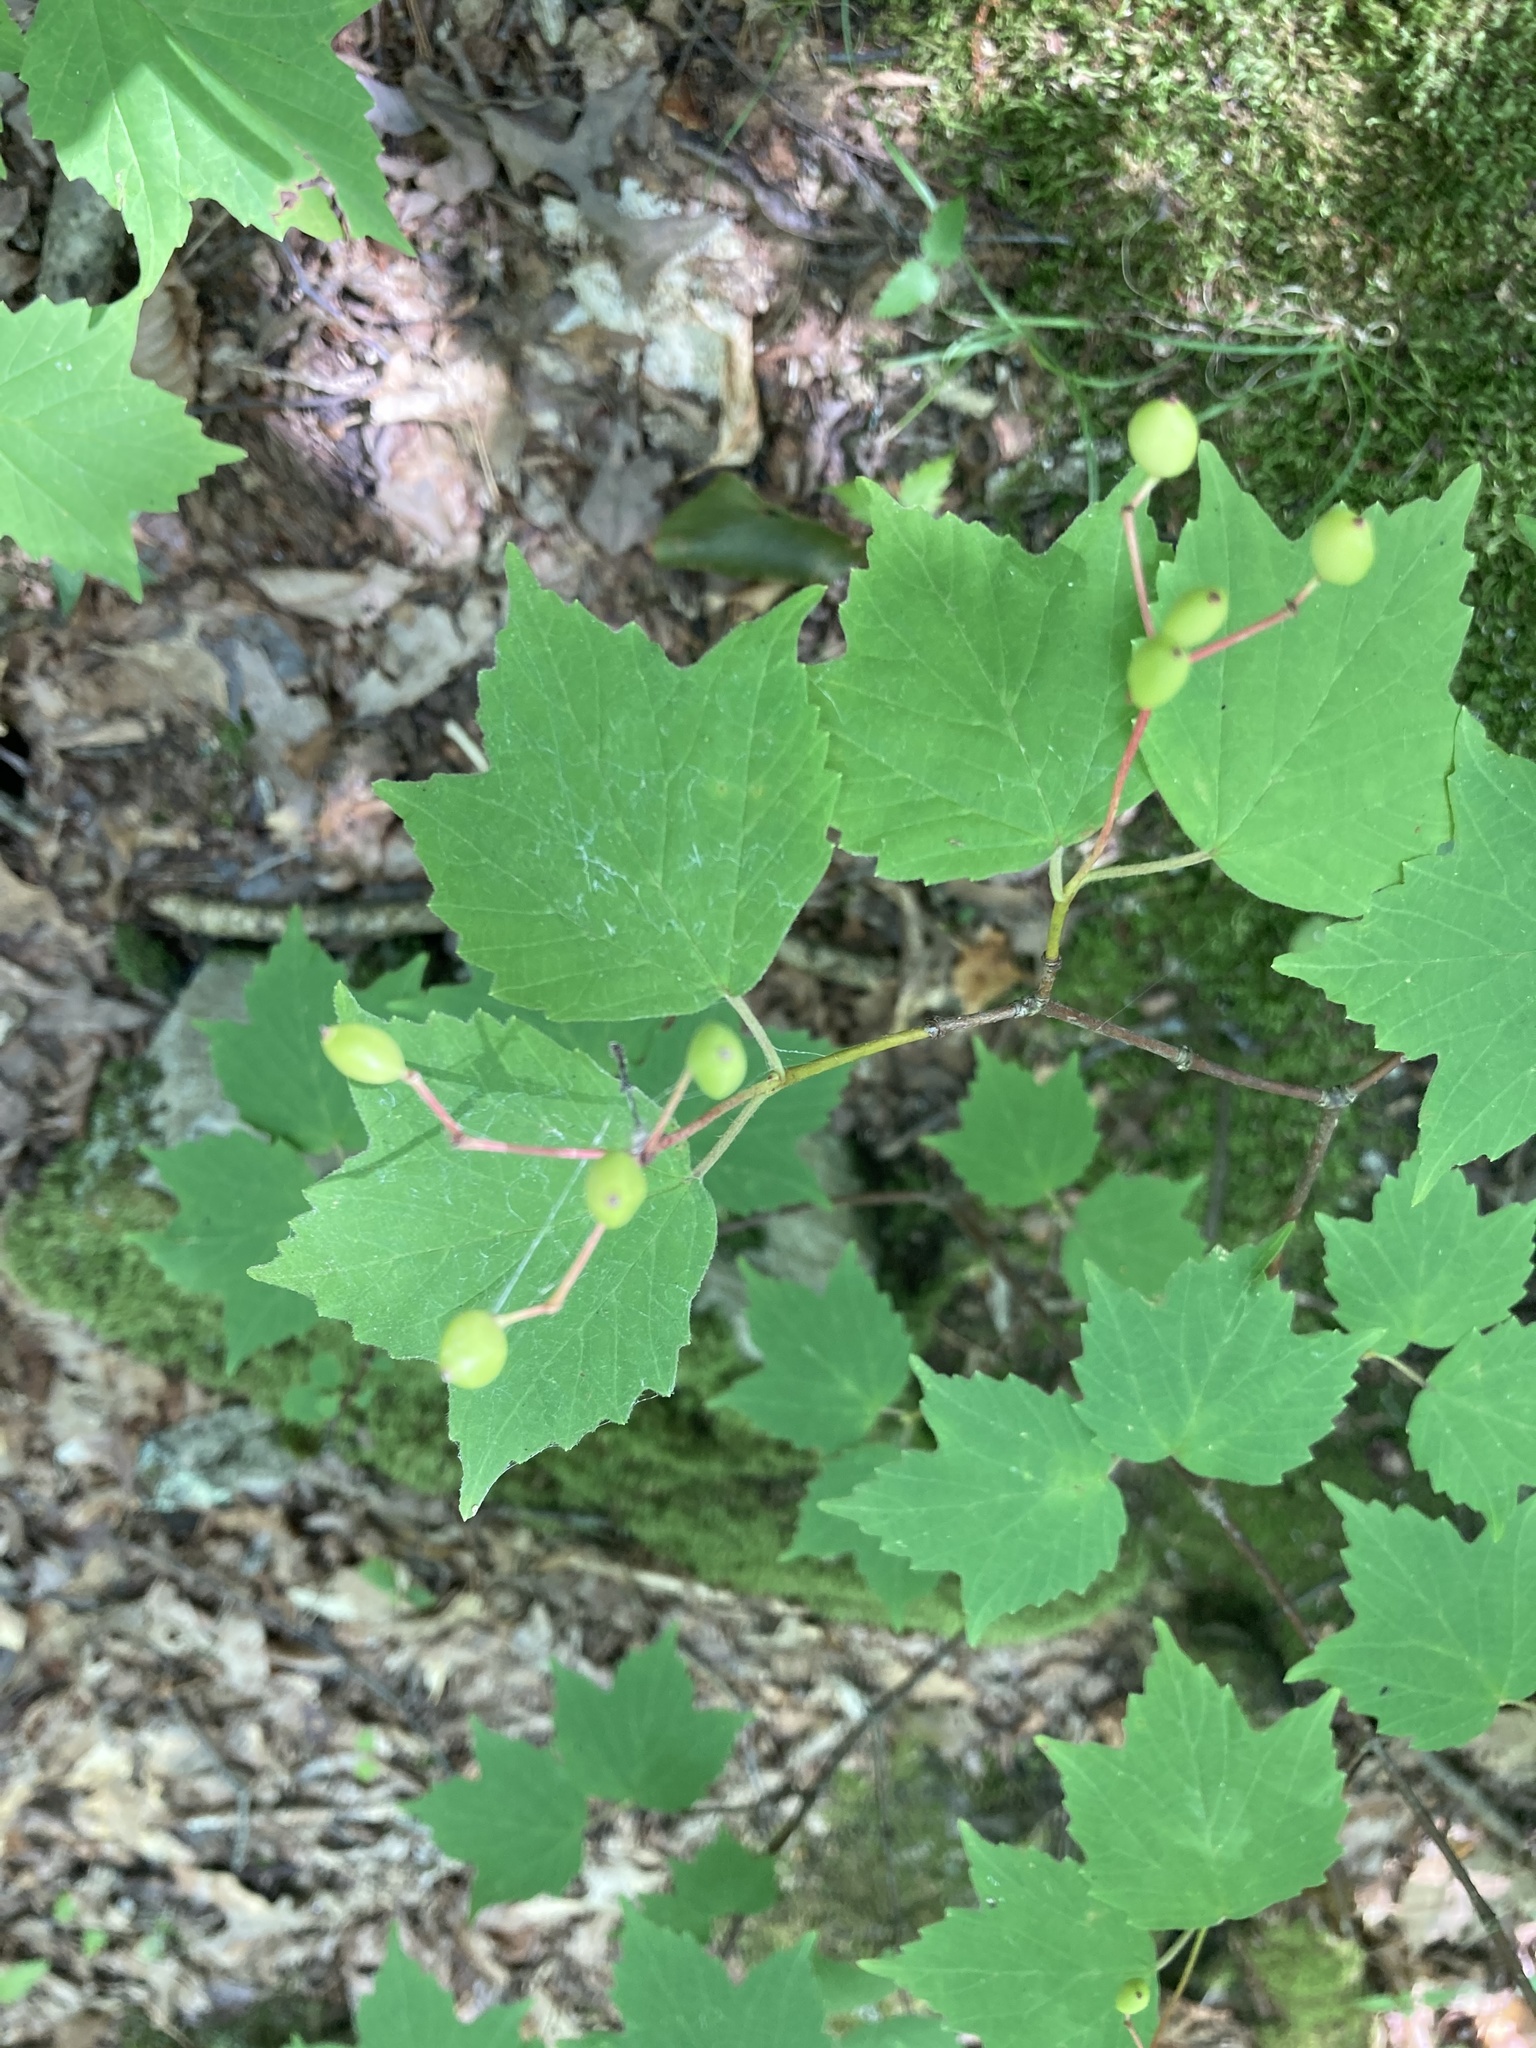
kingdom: Plantae
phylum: Tracheophyta
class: Magnoliopsida
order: Dipsacales
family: Viburnaceae
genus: Viburnum
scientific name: Viburnum acerifolium
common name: Dockmackie
